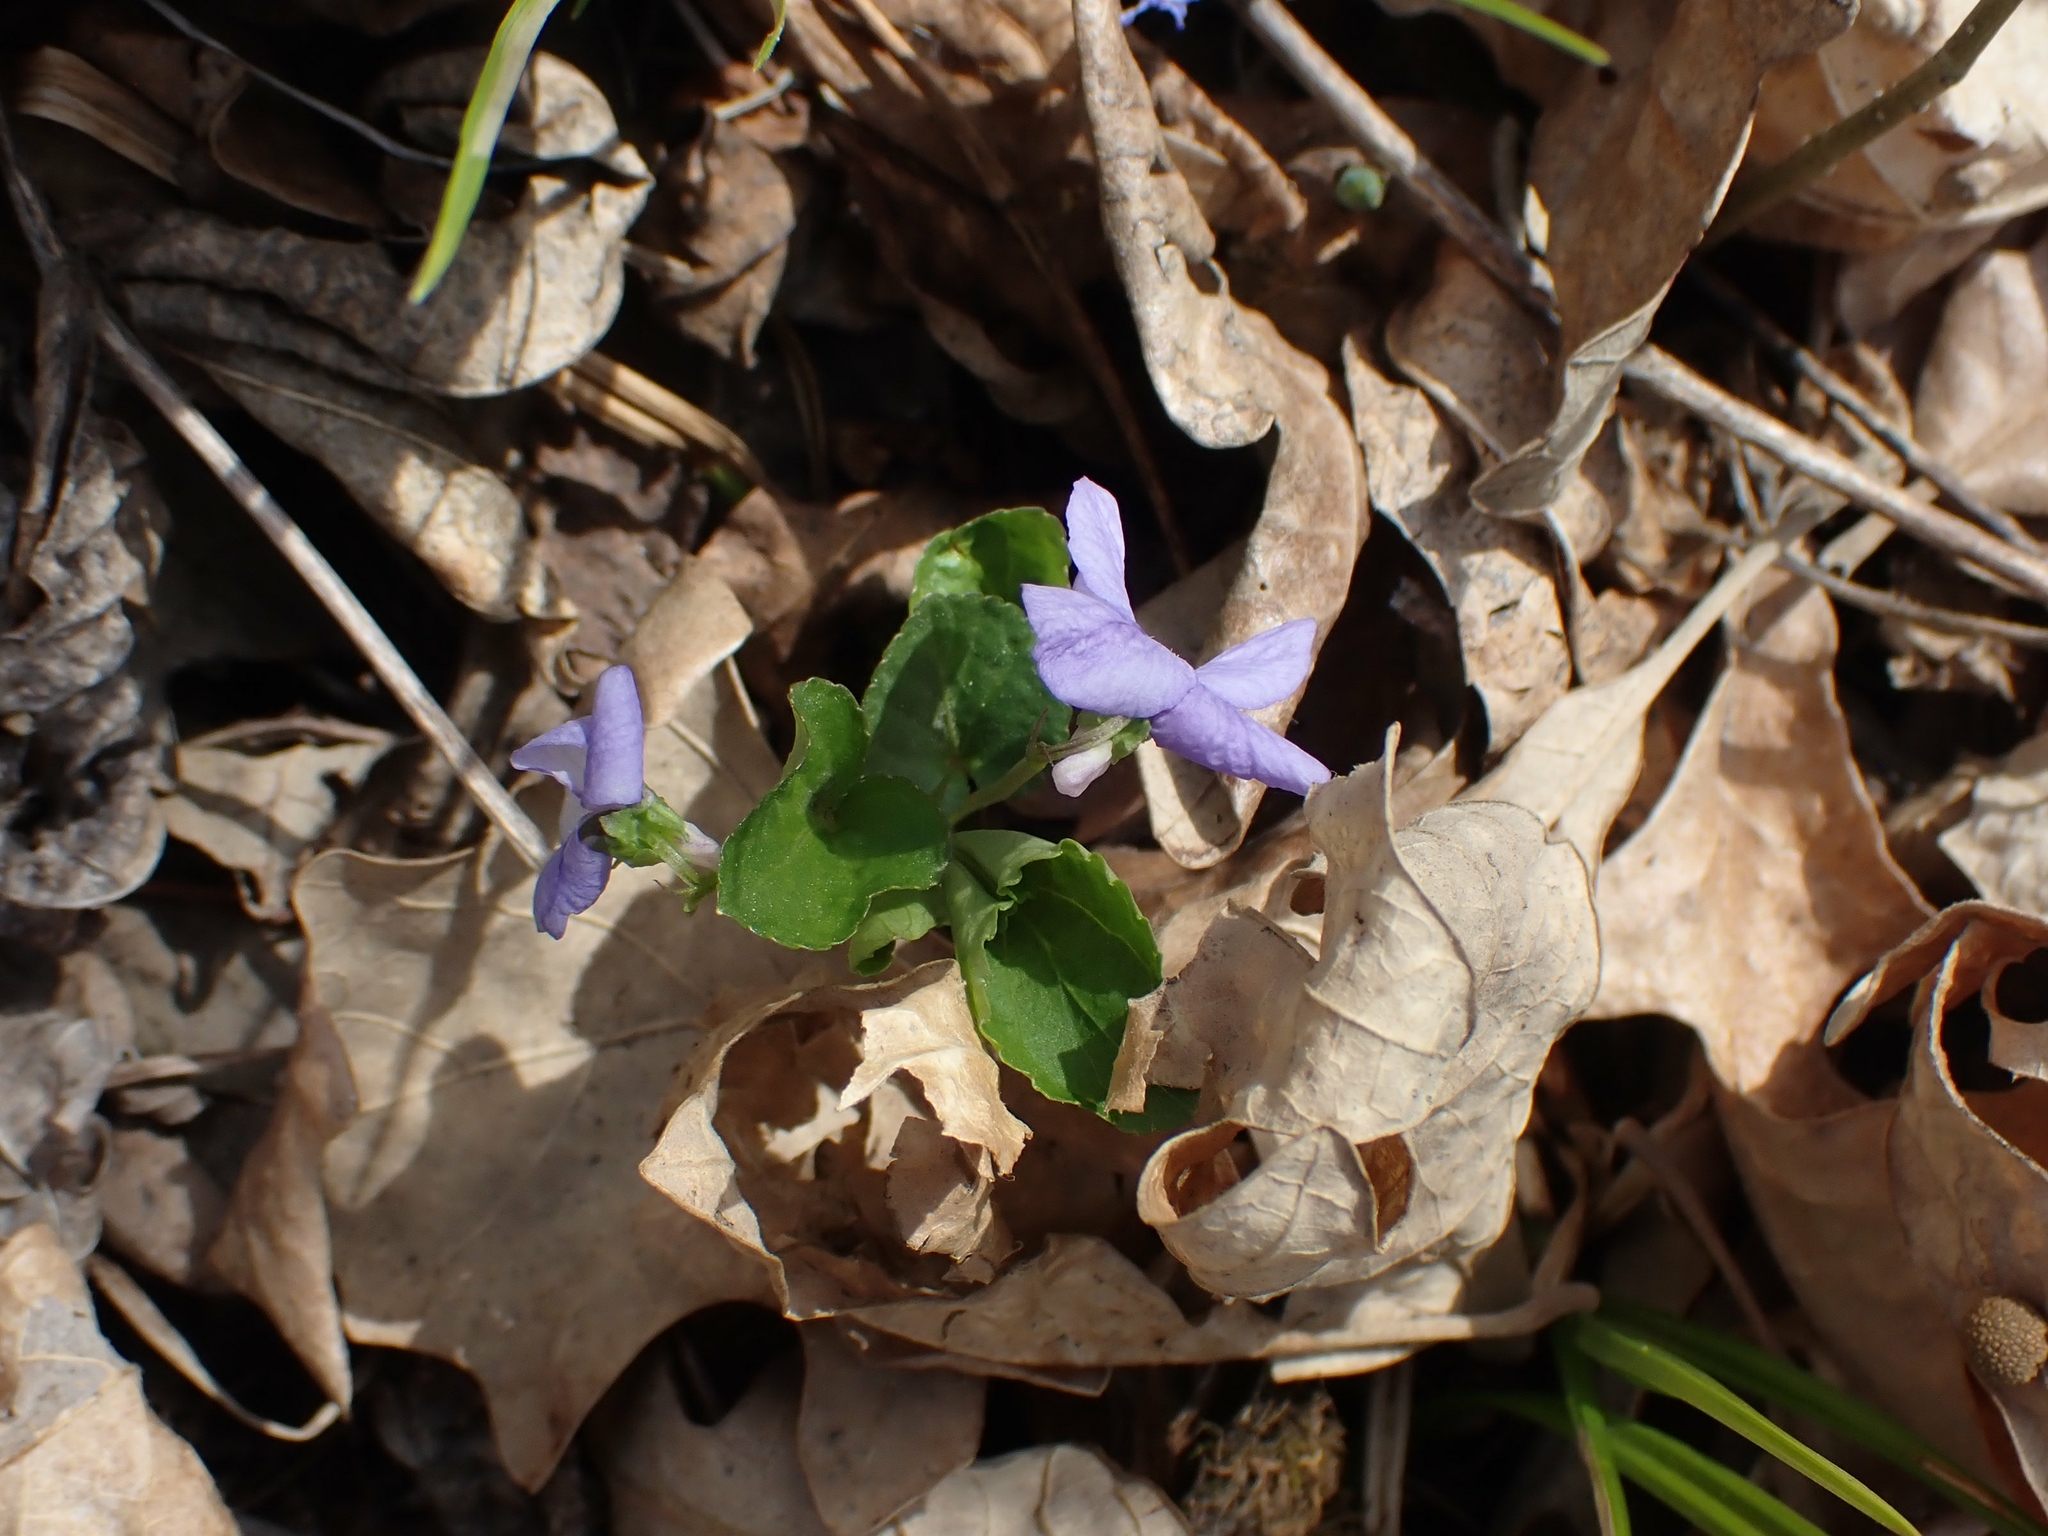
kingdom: Plantae
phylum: Tracheophyta
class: Magnoliopsida
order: Malpighiales
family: Violaceae
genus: Viola
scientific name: Viola selkirkii
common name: Selkirk's violet
